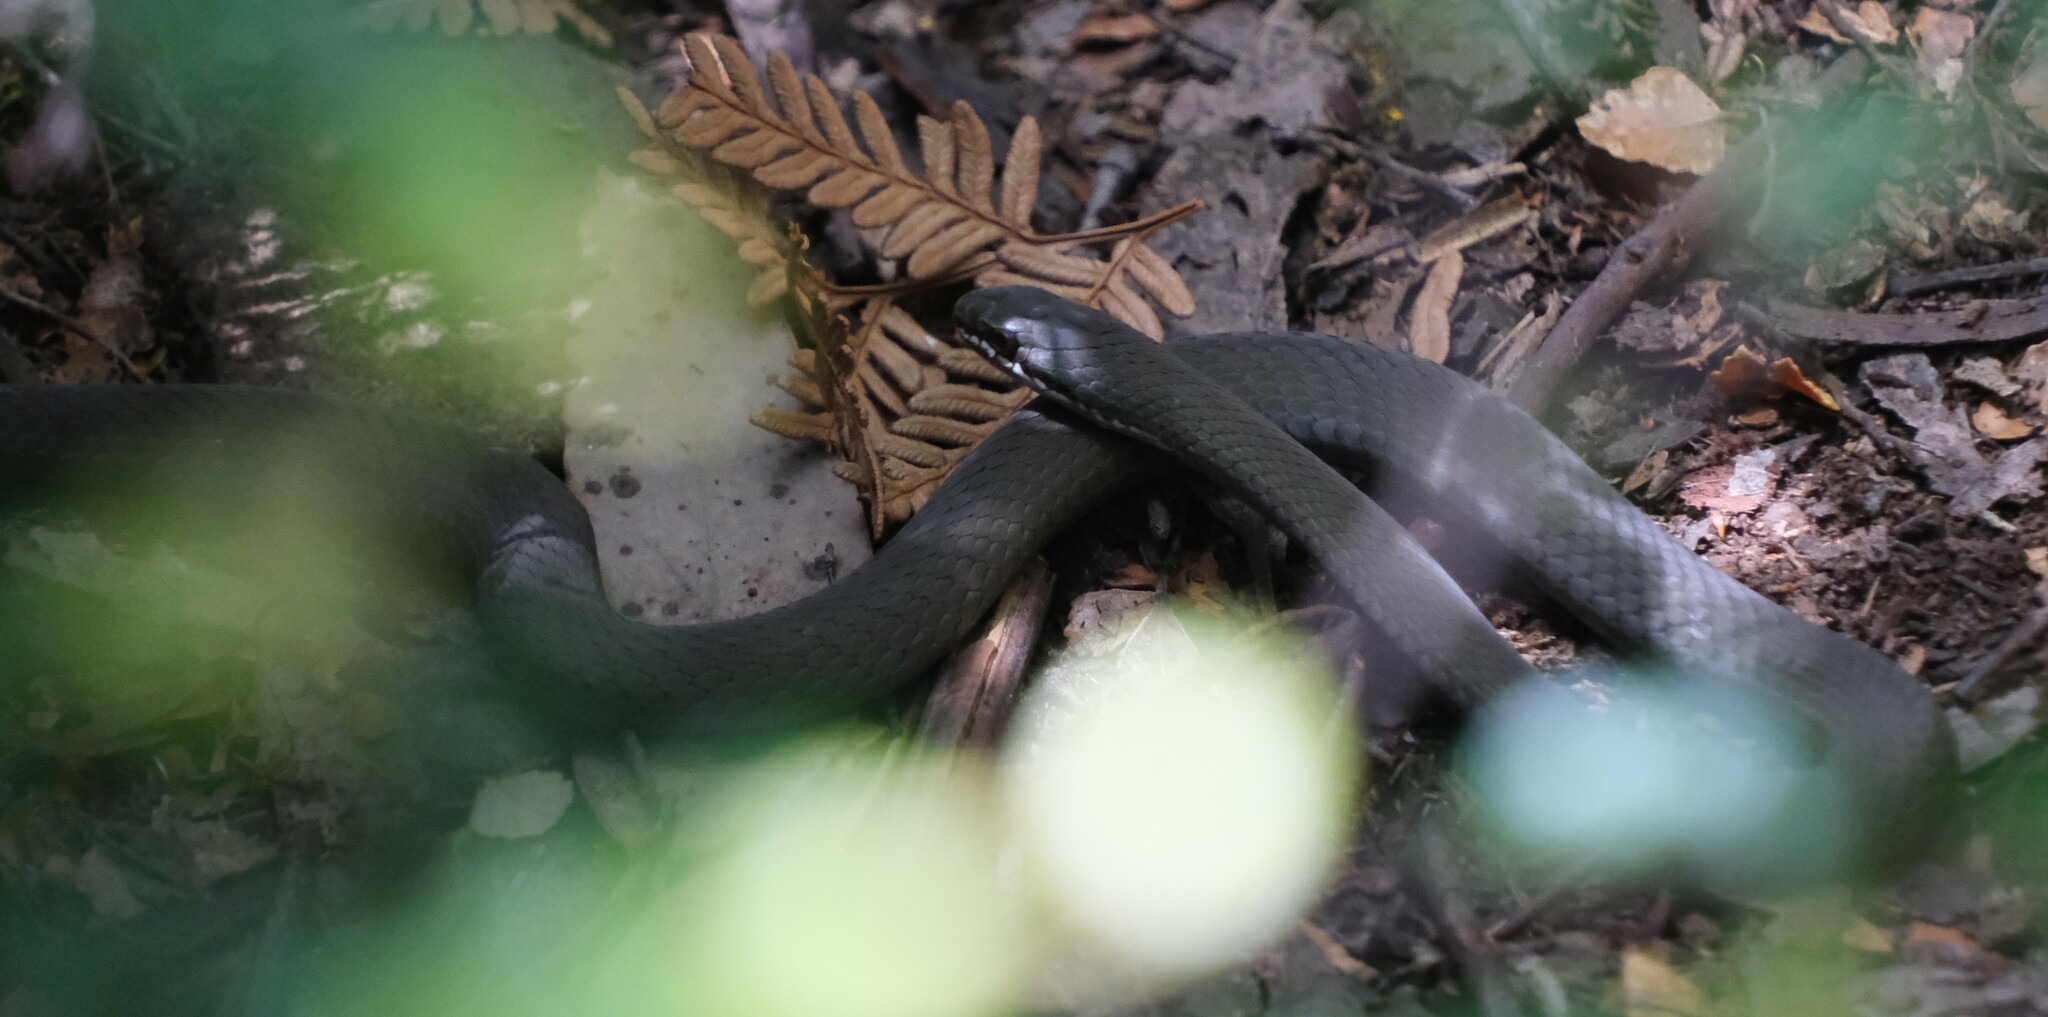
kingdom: Animalia
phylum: Chordata
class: Squamata
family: Elapidae
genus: Drysdalia
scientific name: Drysdalia coronoides
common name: White-lipped snake
